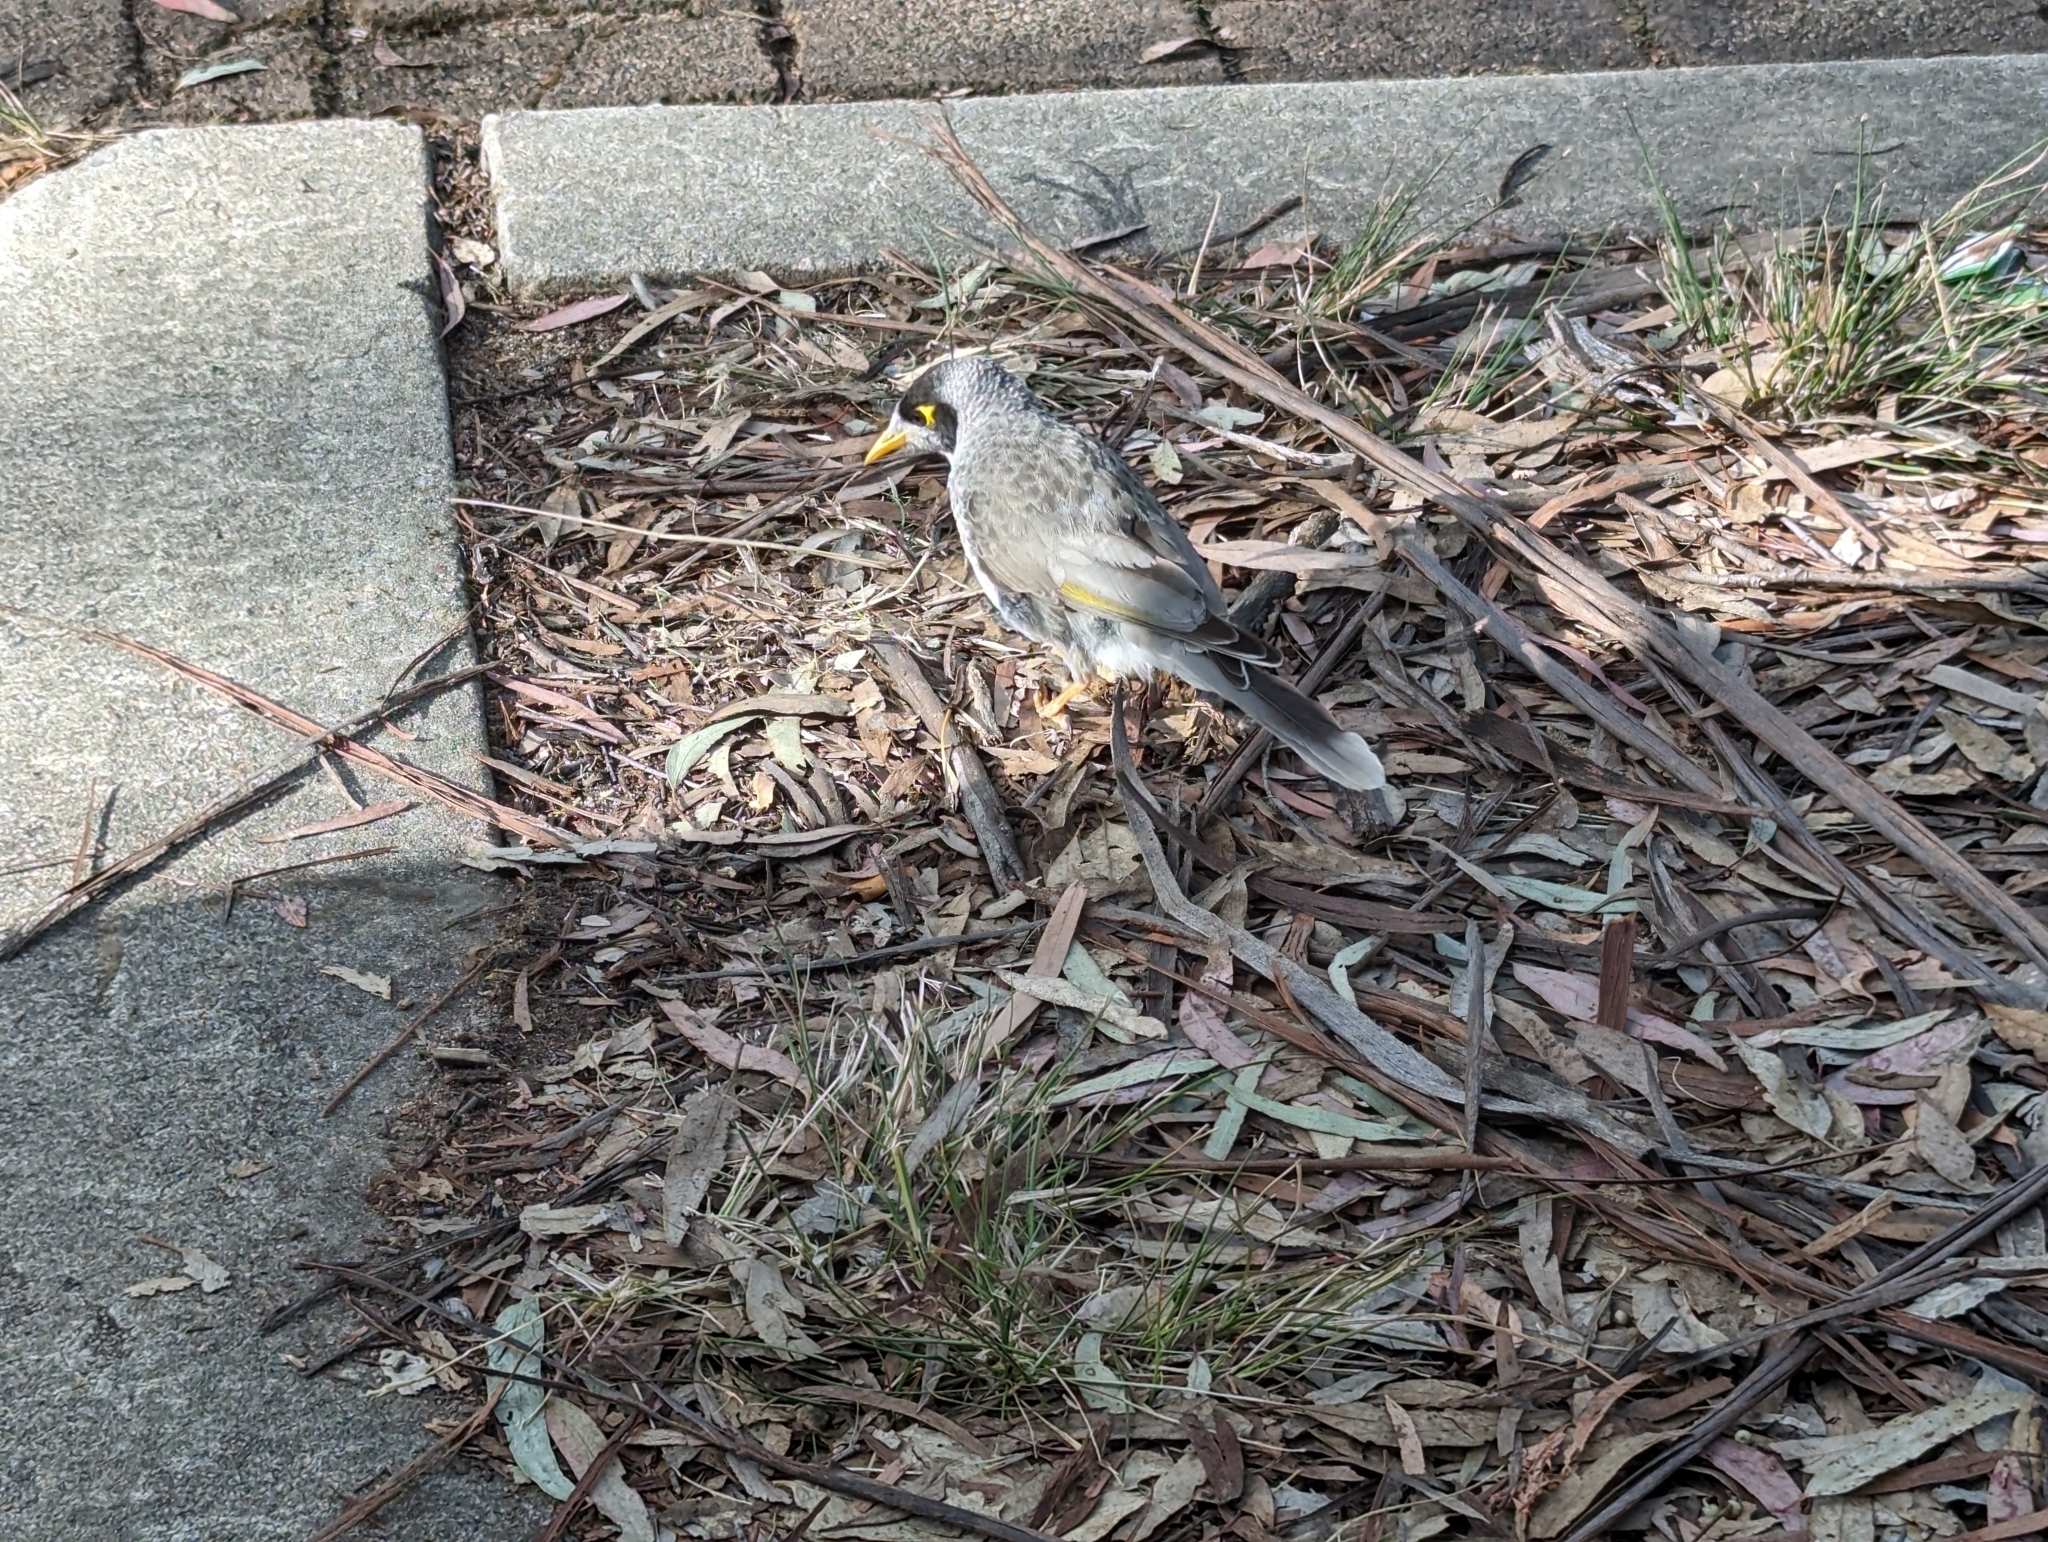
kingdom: Animalia
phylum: Chordata
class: Aves
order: Passeriformes
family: Meliphagidae
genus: Manorina
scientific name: Manorina melanocephala
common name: Noisy miner
